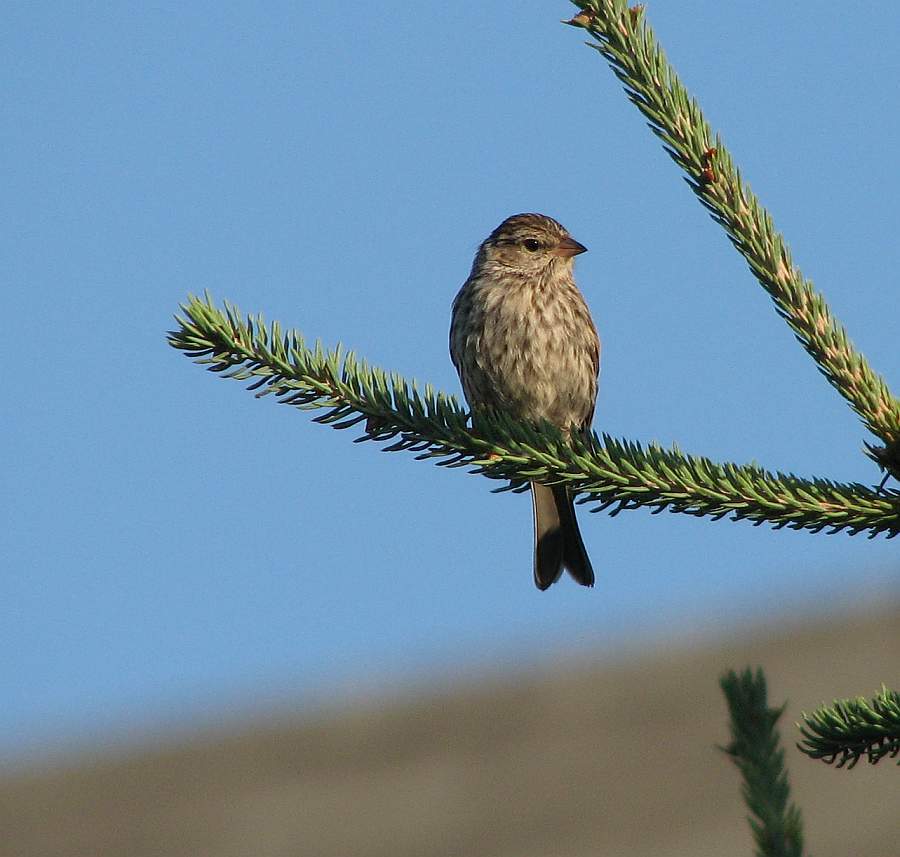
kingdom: Animalia
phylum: Chordata
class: Aves
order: Passeriformes
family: Passerellidae
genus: Spizella
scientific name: Spizella passerina
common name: Chipping sparrow
